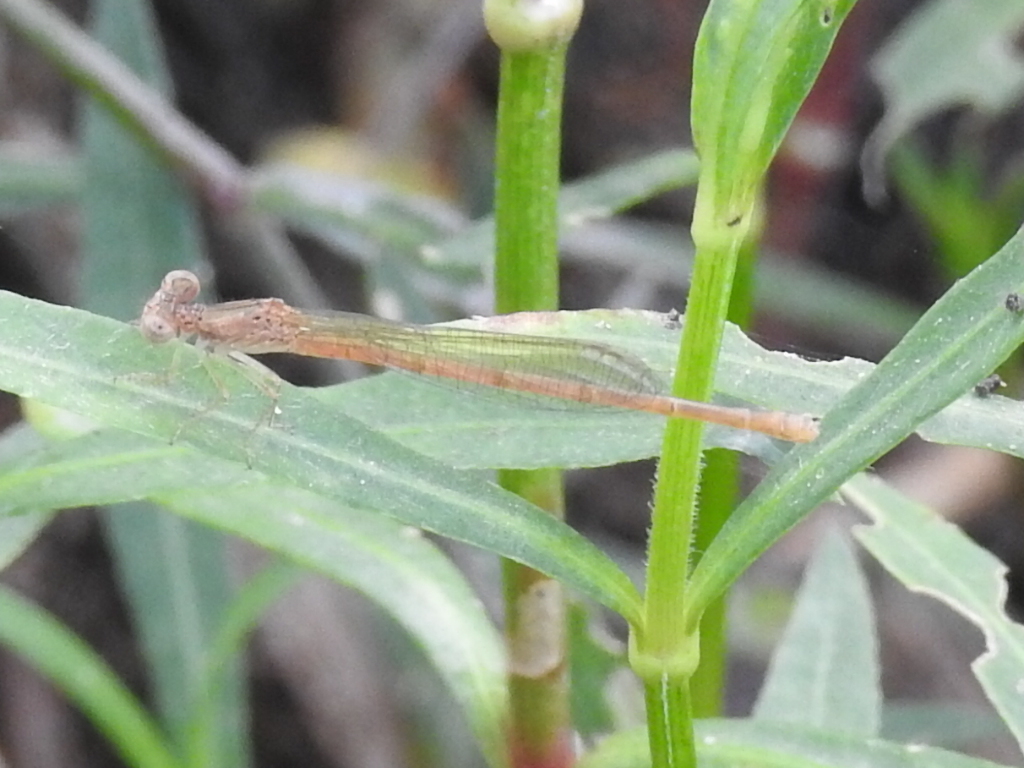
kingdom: Animalia
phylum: Arthropoda
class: Insecta
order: Odonata
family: Coenagrionidae
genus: Telebasis
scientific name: Telebasis salva
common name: Desert firetail
